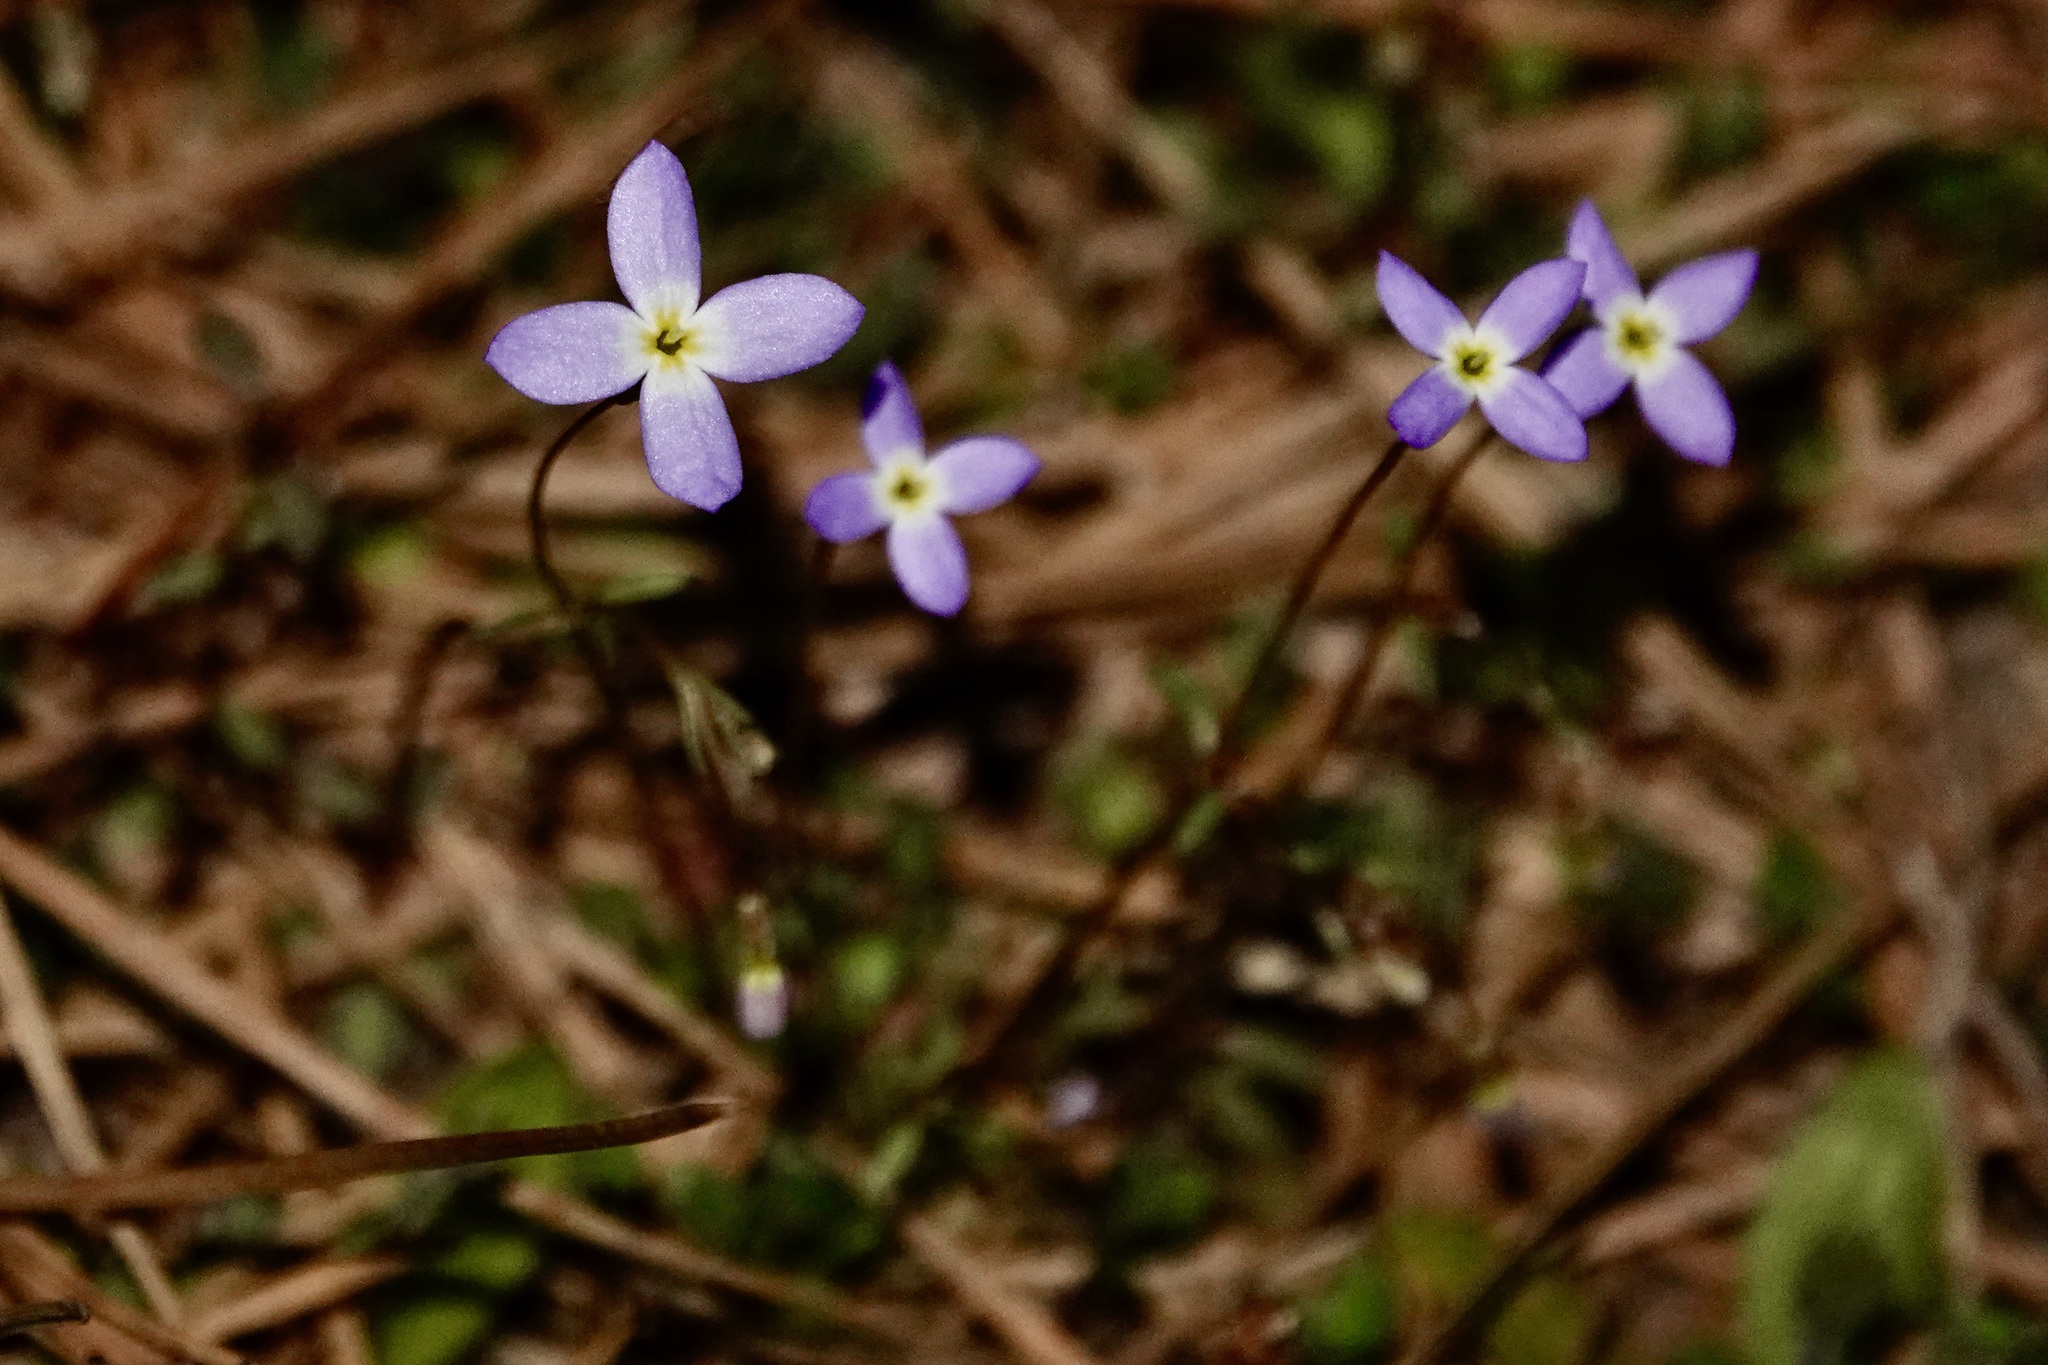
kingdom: Plantae
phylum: Tracheophyta
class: Magnoliopsida
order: Gentianales
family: Rubiaceae
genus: Houstonia
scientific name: Houstonia caerulea
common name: Bluets
